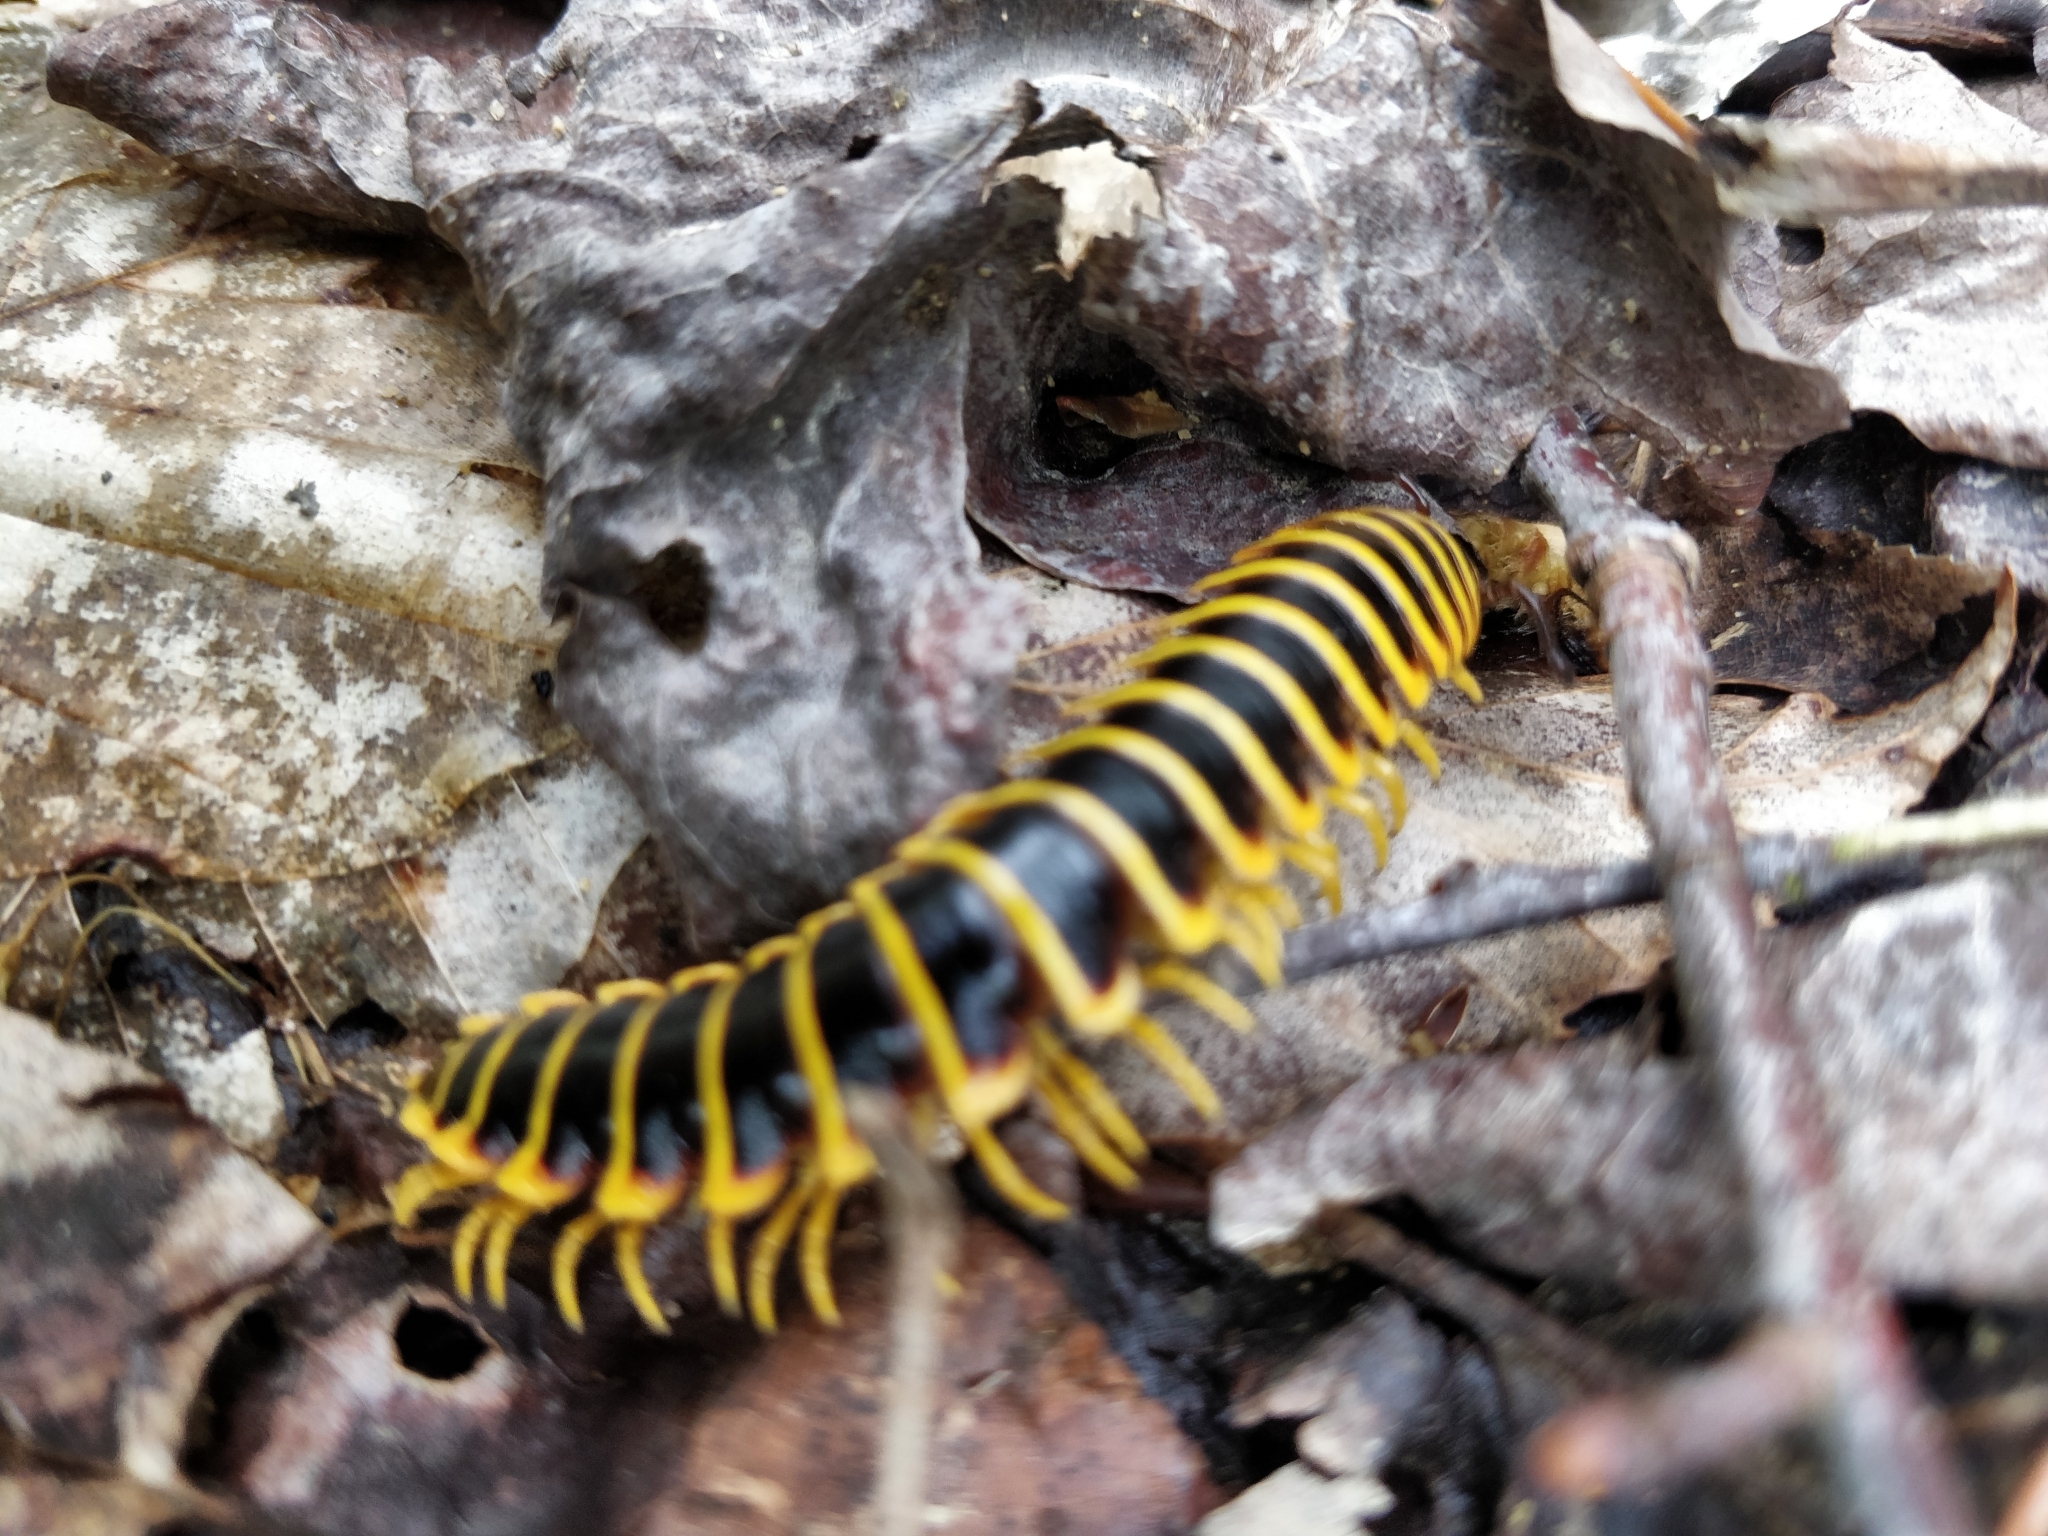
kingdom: Animalia
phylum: Arthropoda
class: Diplopoda
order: Polydesmida
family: Xystodesmidae
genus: Apheloria
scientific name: Apheloria virginiensis
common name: Black-and-gold flat millipede
